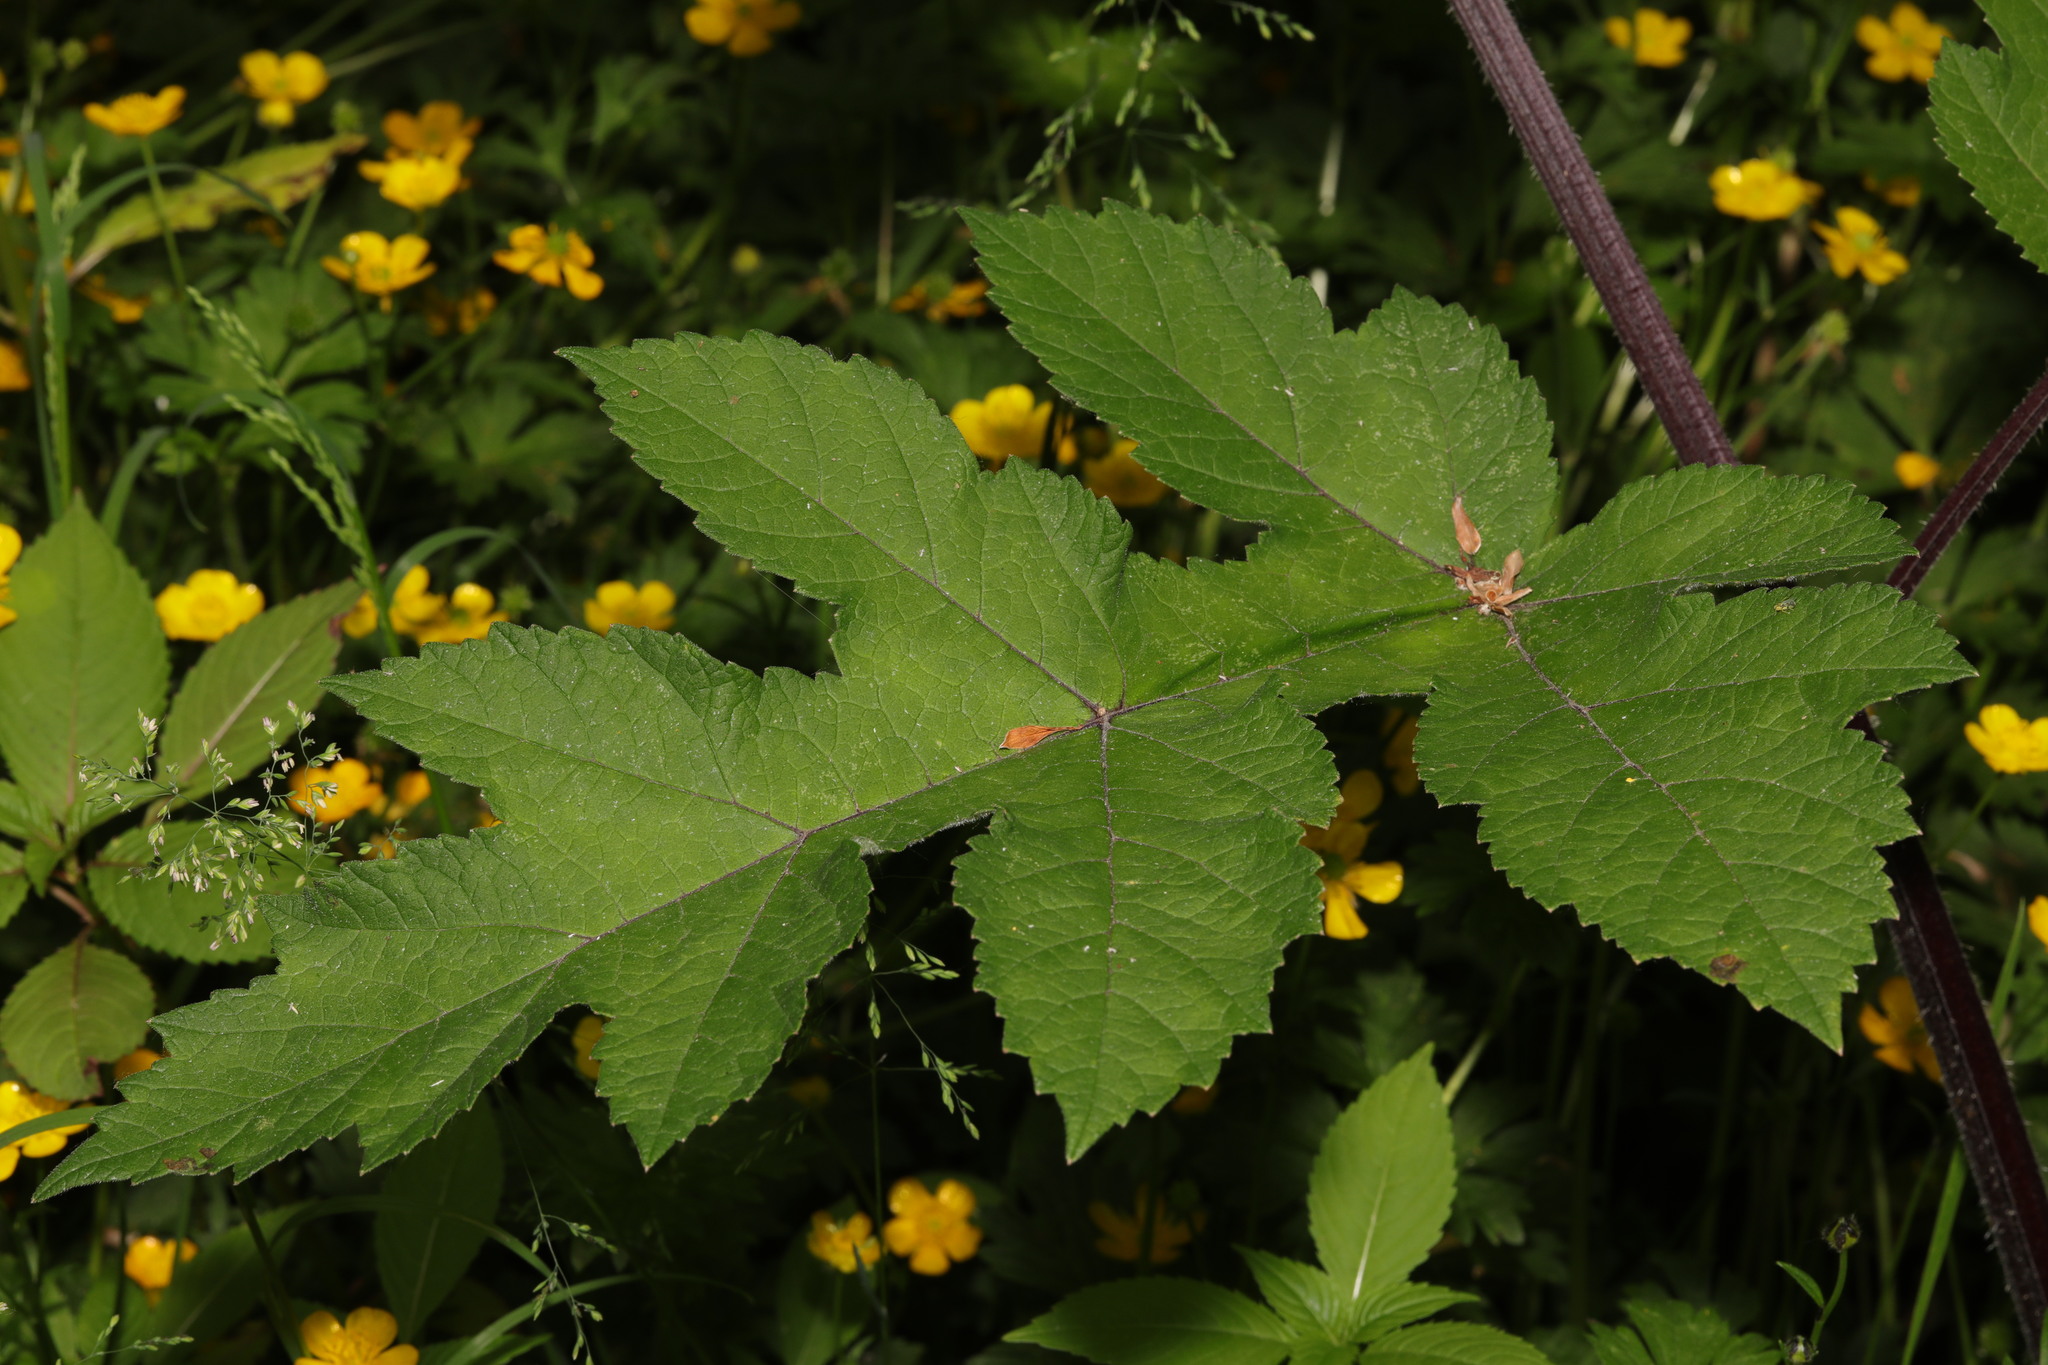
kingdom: Plantae
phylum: Tracheophyta
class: Magnoliopsida
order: Apiales
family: Apiaceae
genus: Heracleum
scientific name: Heracleum sphondylium
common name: Hogweed
